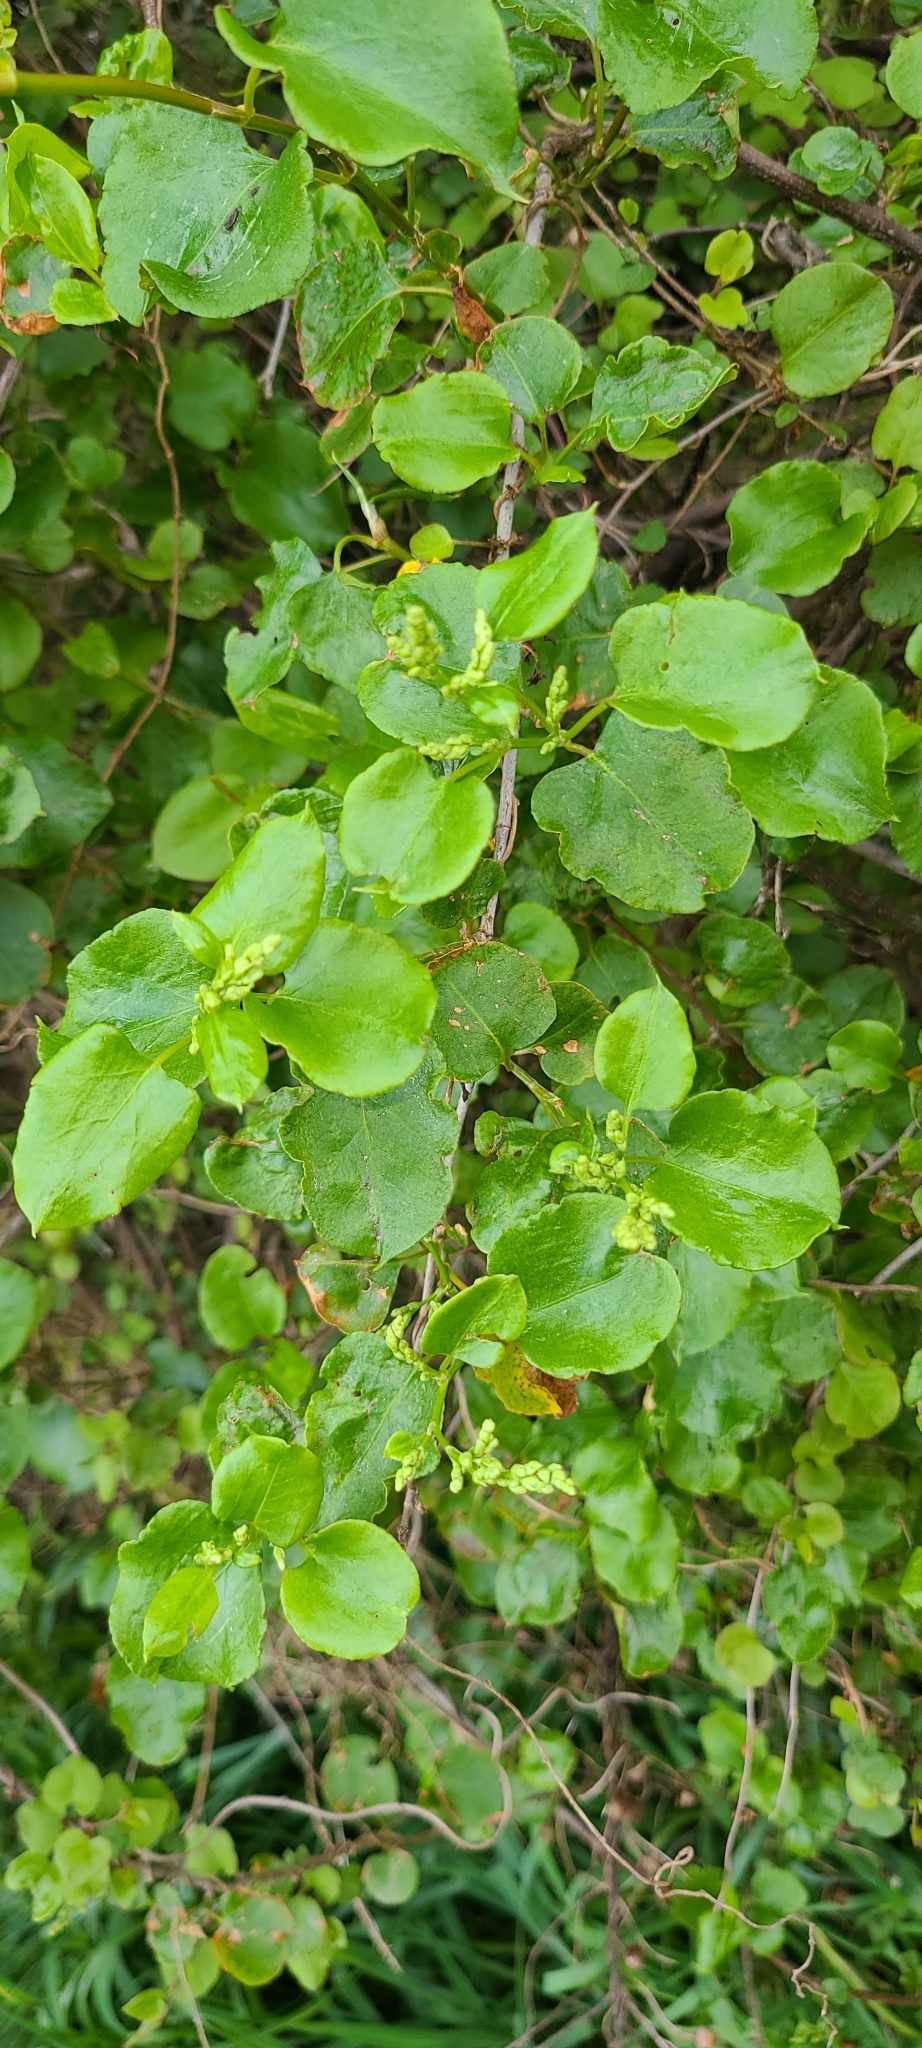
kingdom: Plantae
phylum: Tracheophyta
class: Magnoliopsida
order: Caryophyllales
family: Polygonaceae
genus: Muehlenbeckia
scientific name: Muehlenbeckia australis
